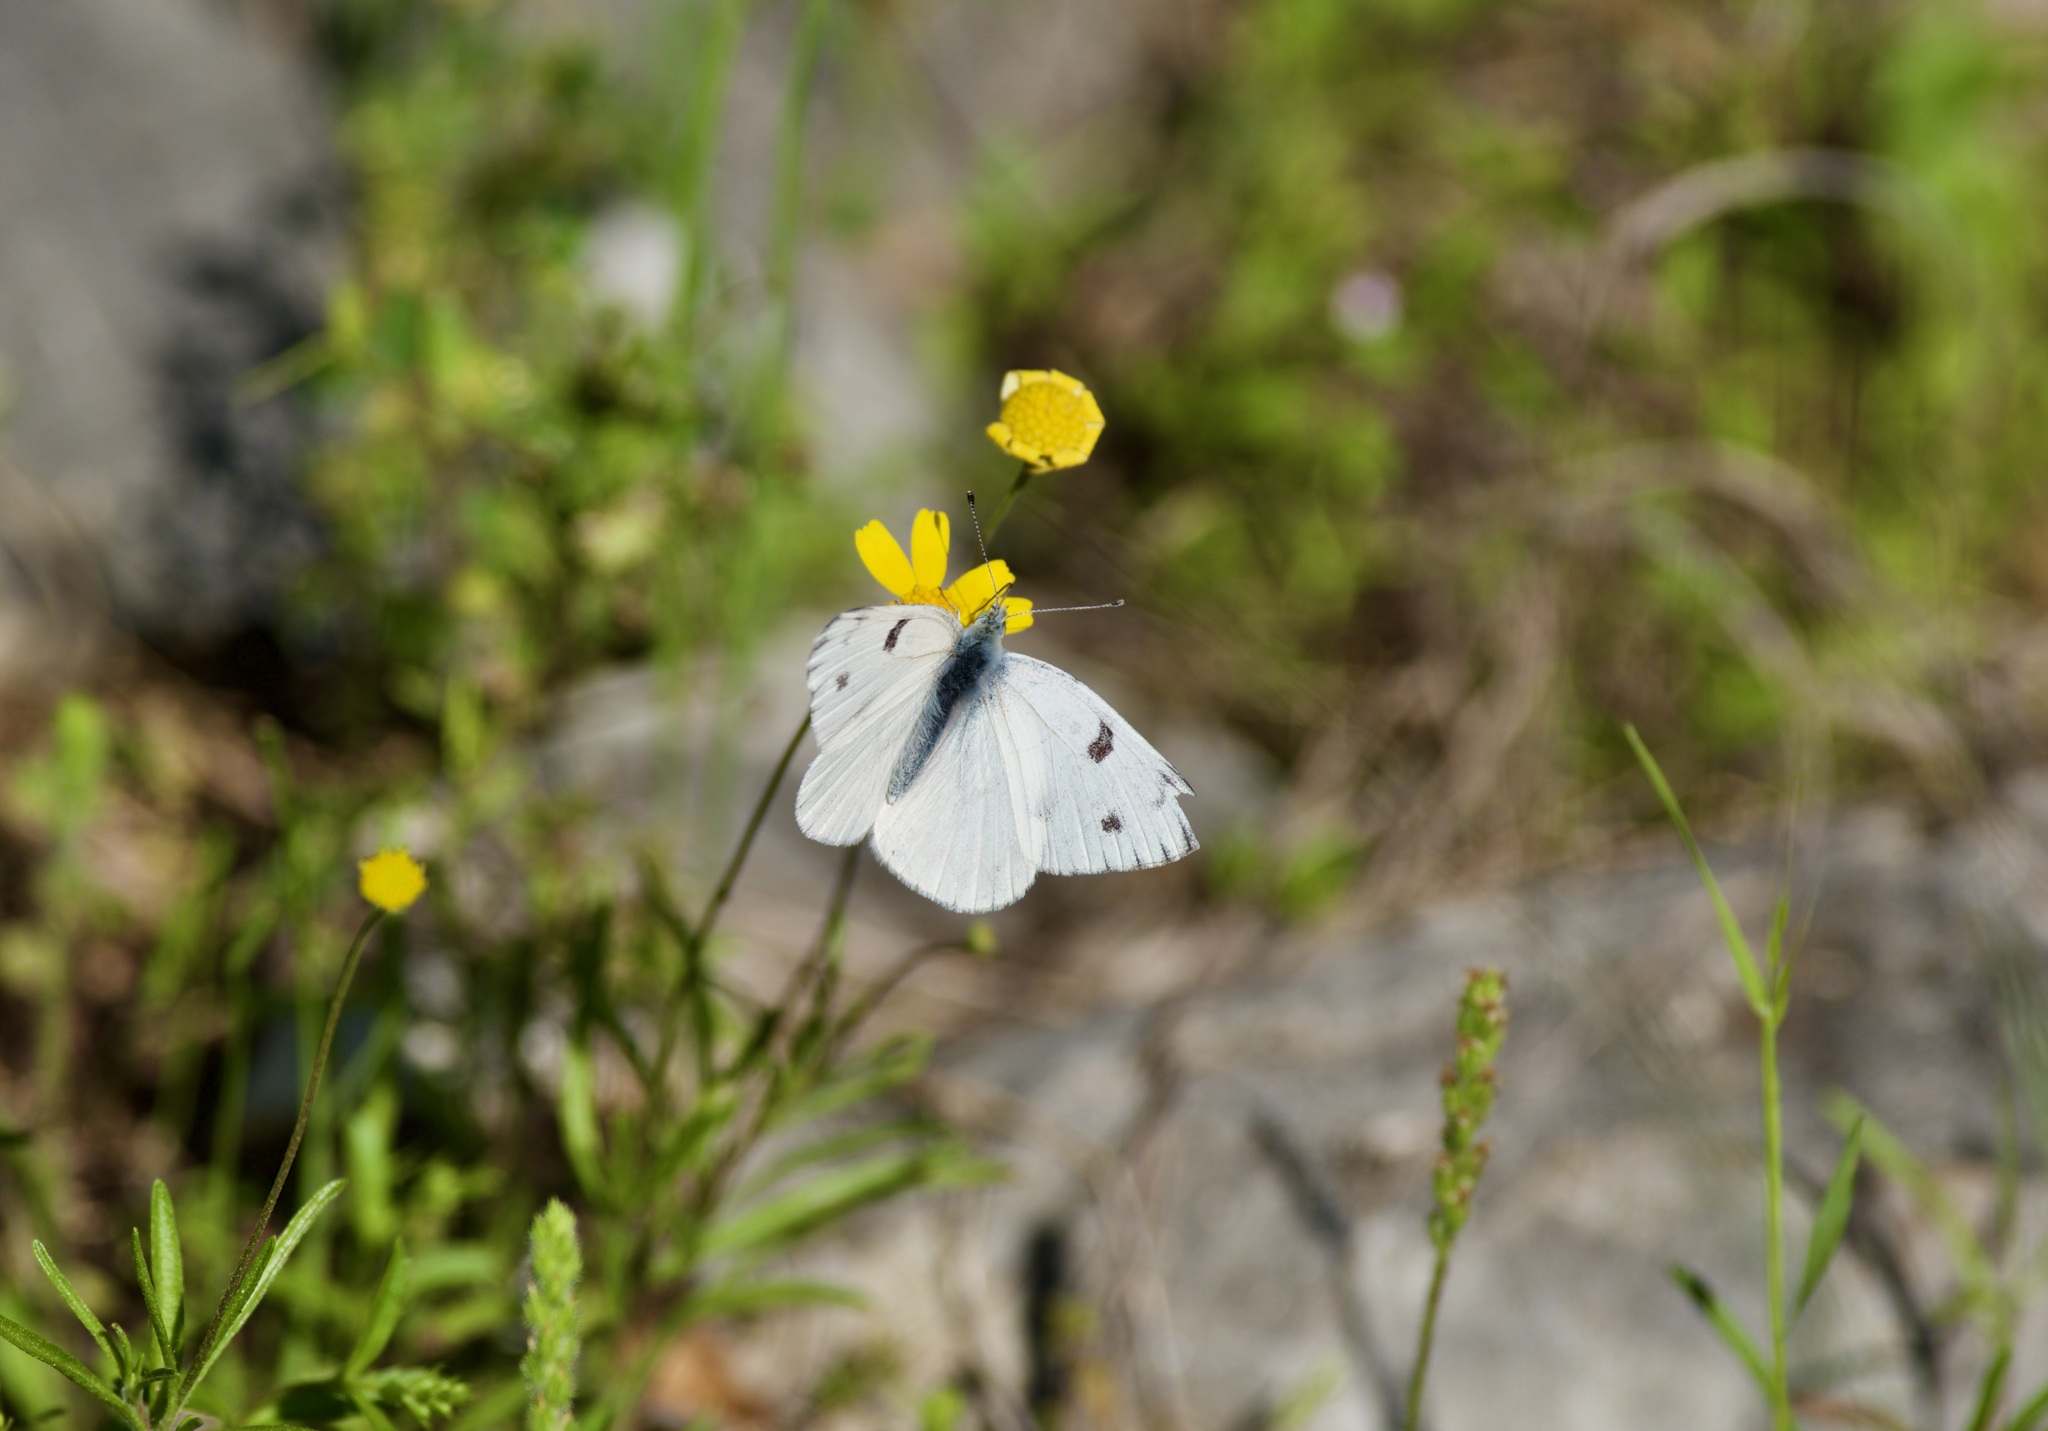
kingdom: Animalia
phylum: Arthropoda
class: Insecta
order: Lepidoptera
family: Pieridae
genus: Pontia
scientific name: Pontia protodice
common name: Checkered white
